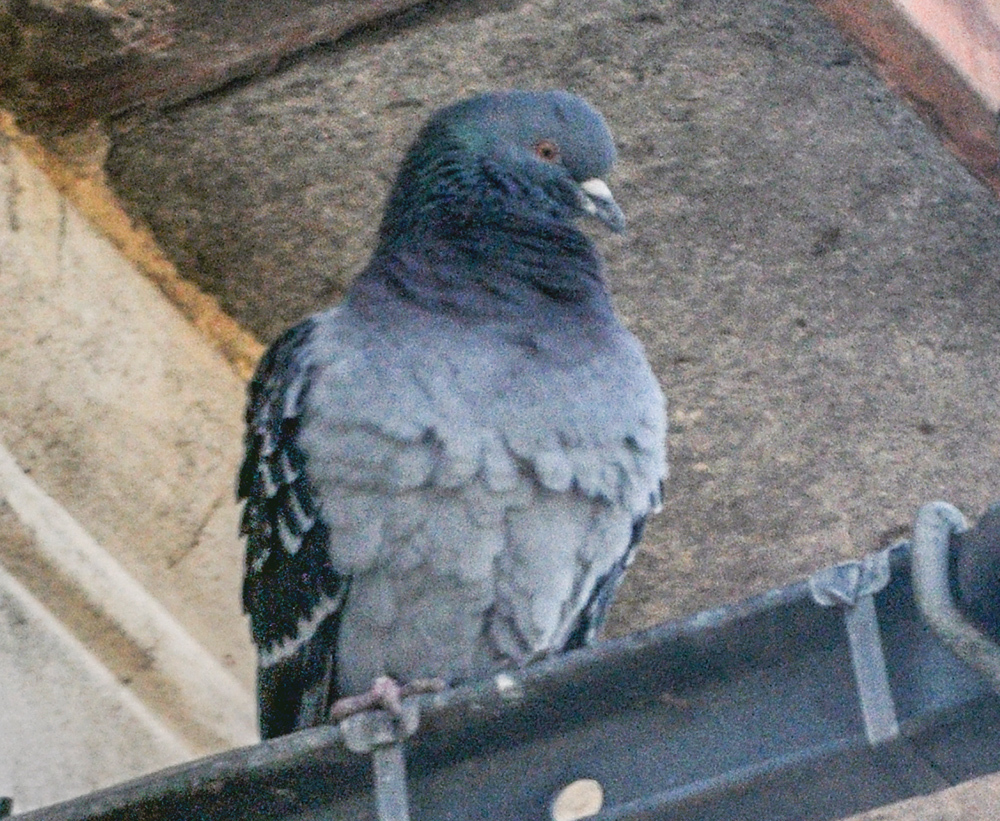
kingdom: Animalia
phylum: Chordata
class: Aves
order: Columbiformes
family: Columbidae
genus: Columba
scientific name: Columba livia
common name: Rock pigeon
